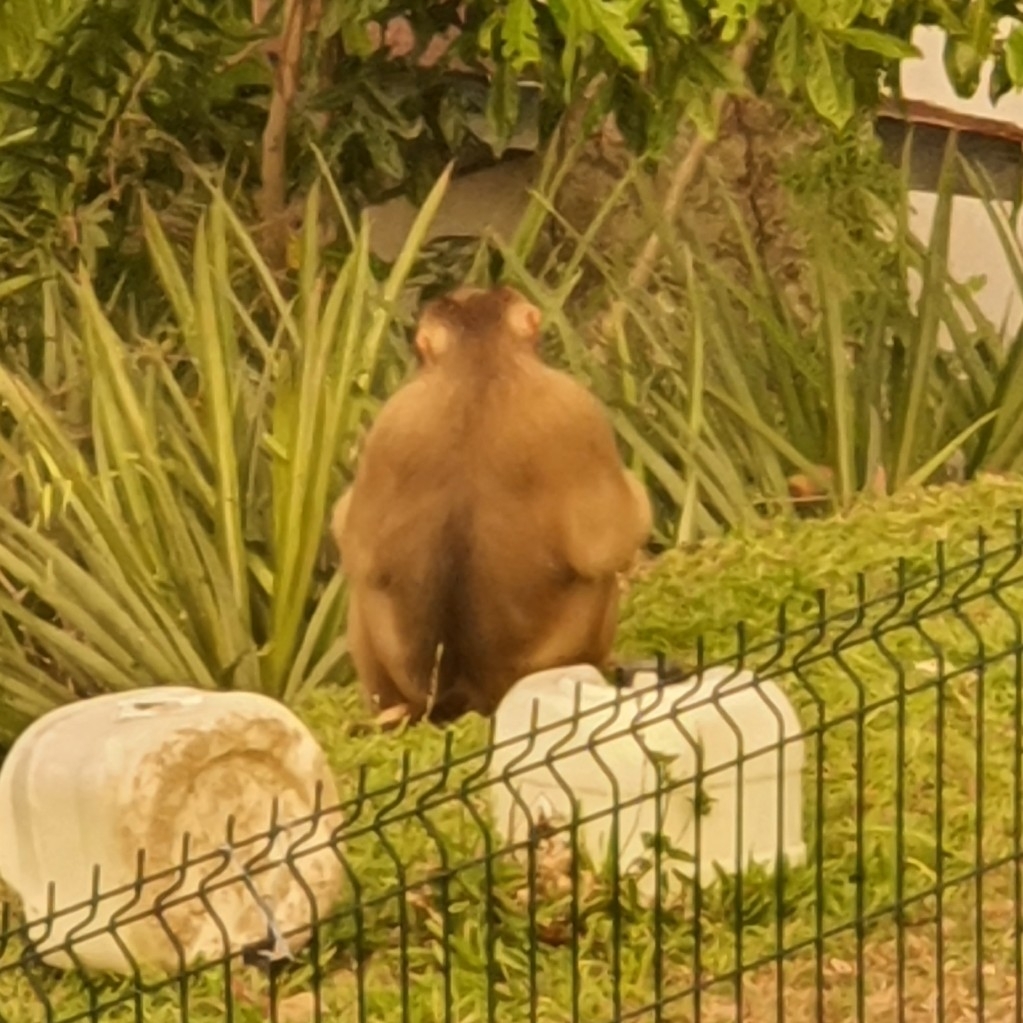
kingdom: Animalia
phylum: Chordata
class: Mammalia
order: Primates
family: Cercopithecidae
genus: Macaca
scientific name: Macaca nemestrina
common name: Southern pig-tailed macaque
